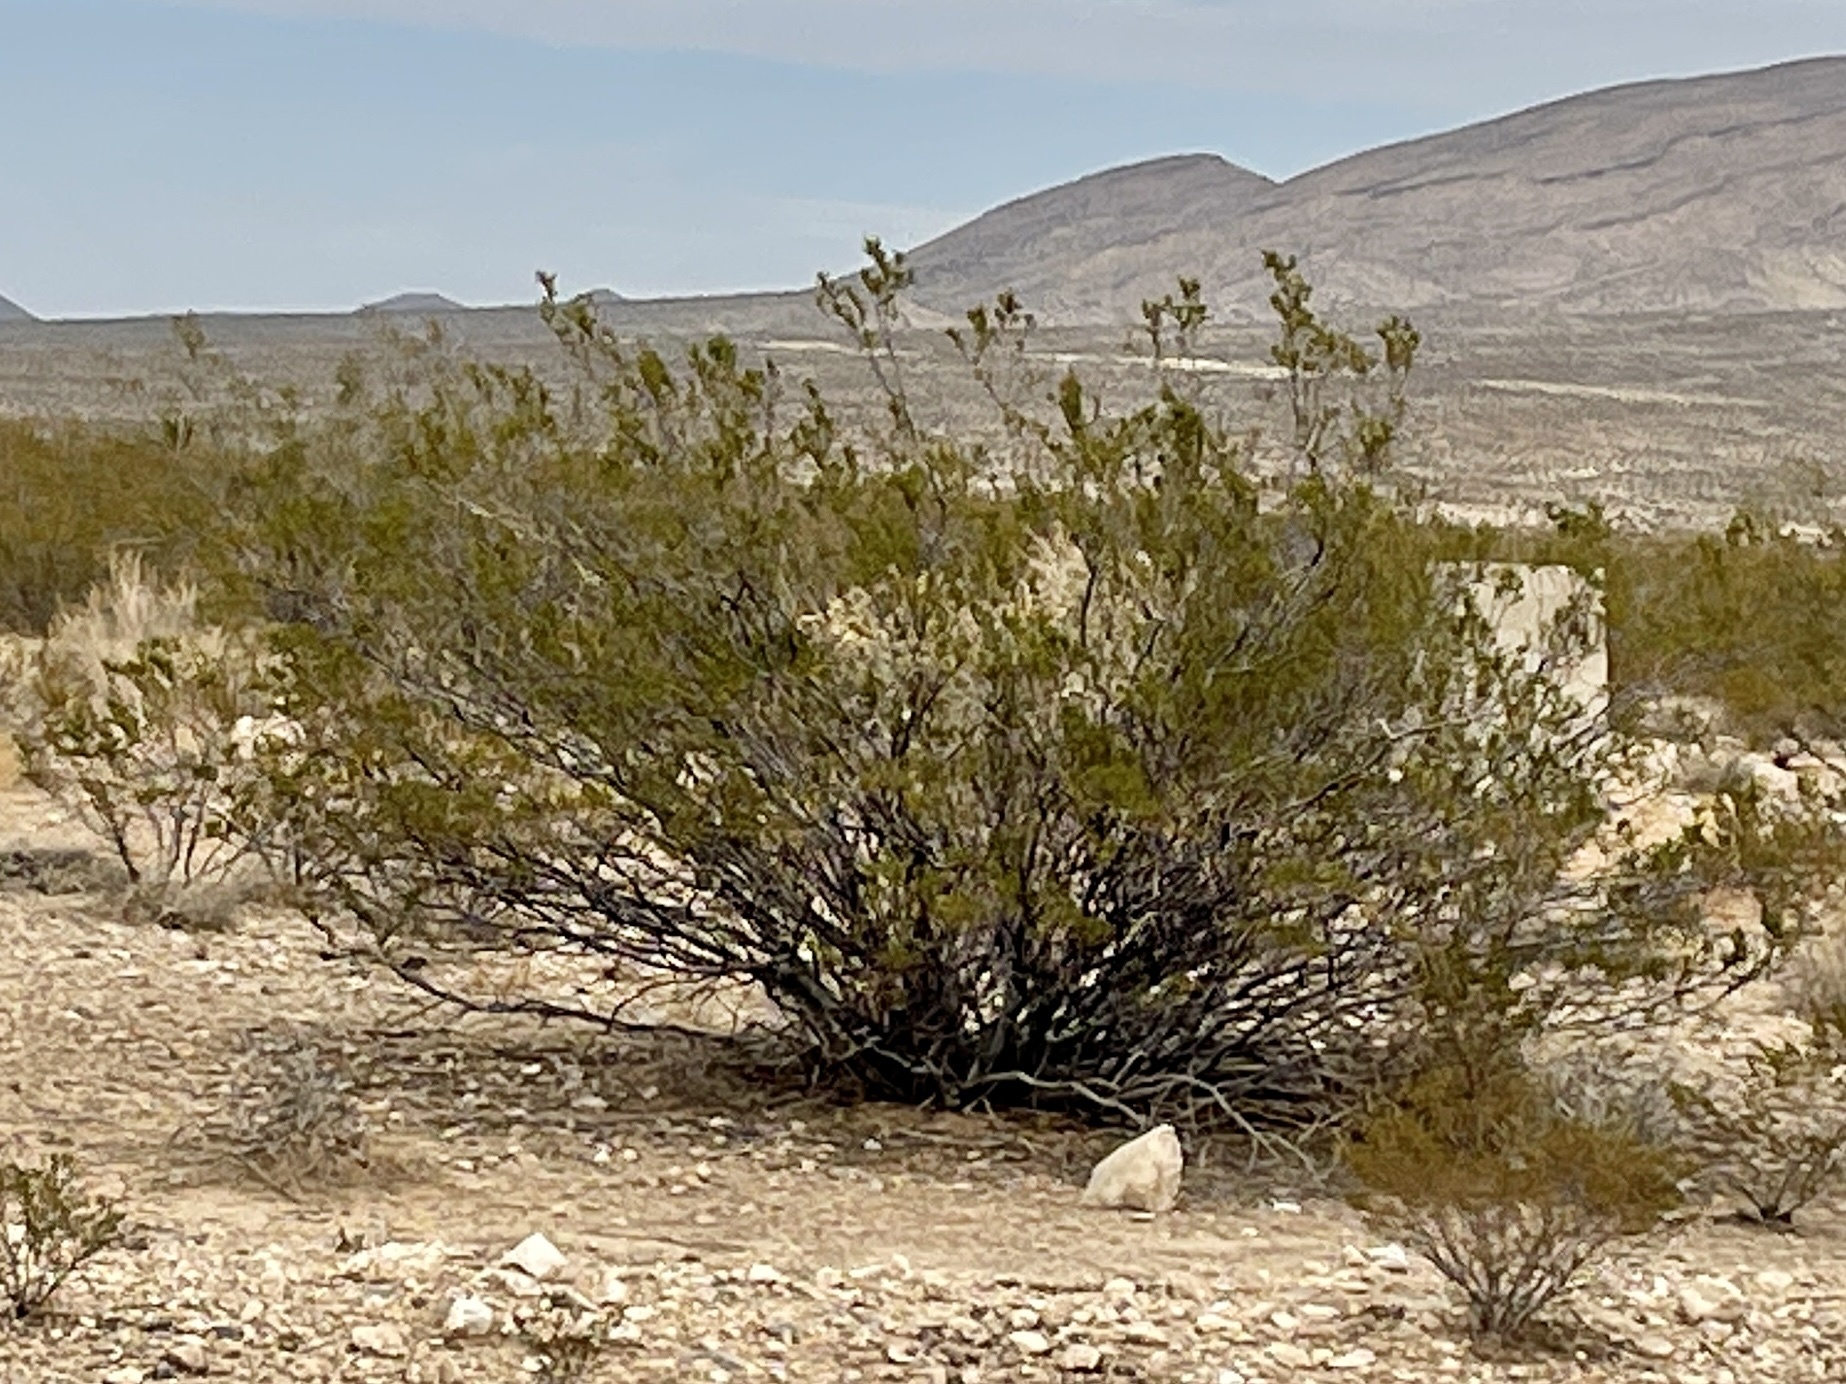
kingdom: Plantae
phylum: Tracheophyta
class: Magnoliopsida
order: Zygophyllales
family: Zygophyllaceae
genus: Larrea
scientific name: Larrea tridentata
